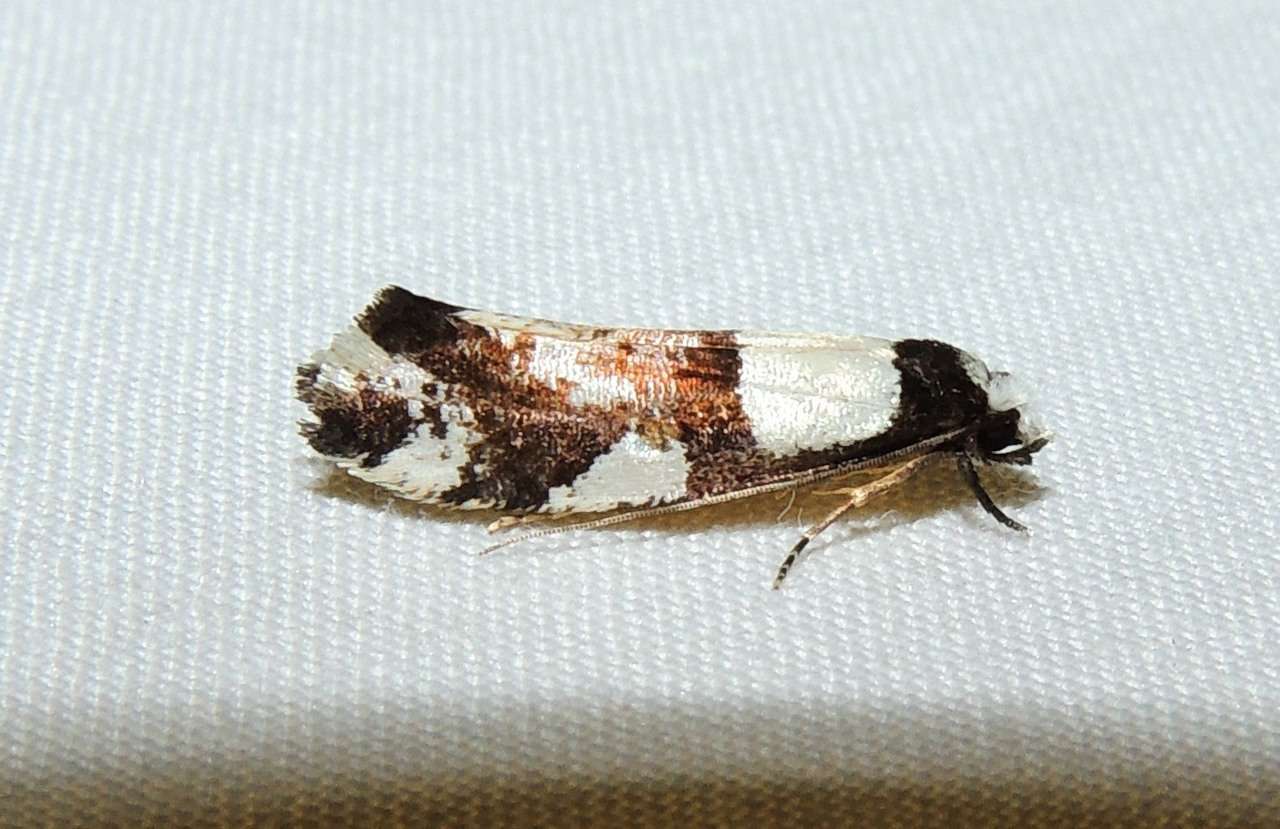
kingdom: Animalia
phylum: Arthropoda
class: Insecta
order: Lepidoptera
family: Tineidae
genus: Monopis
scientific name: Monopis icterogastra
